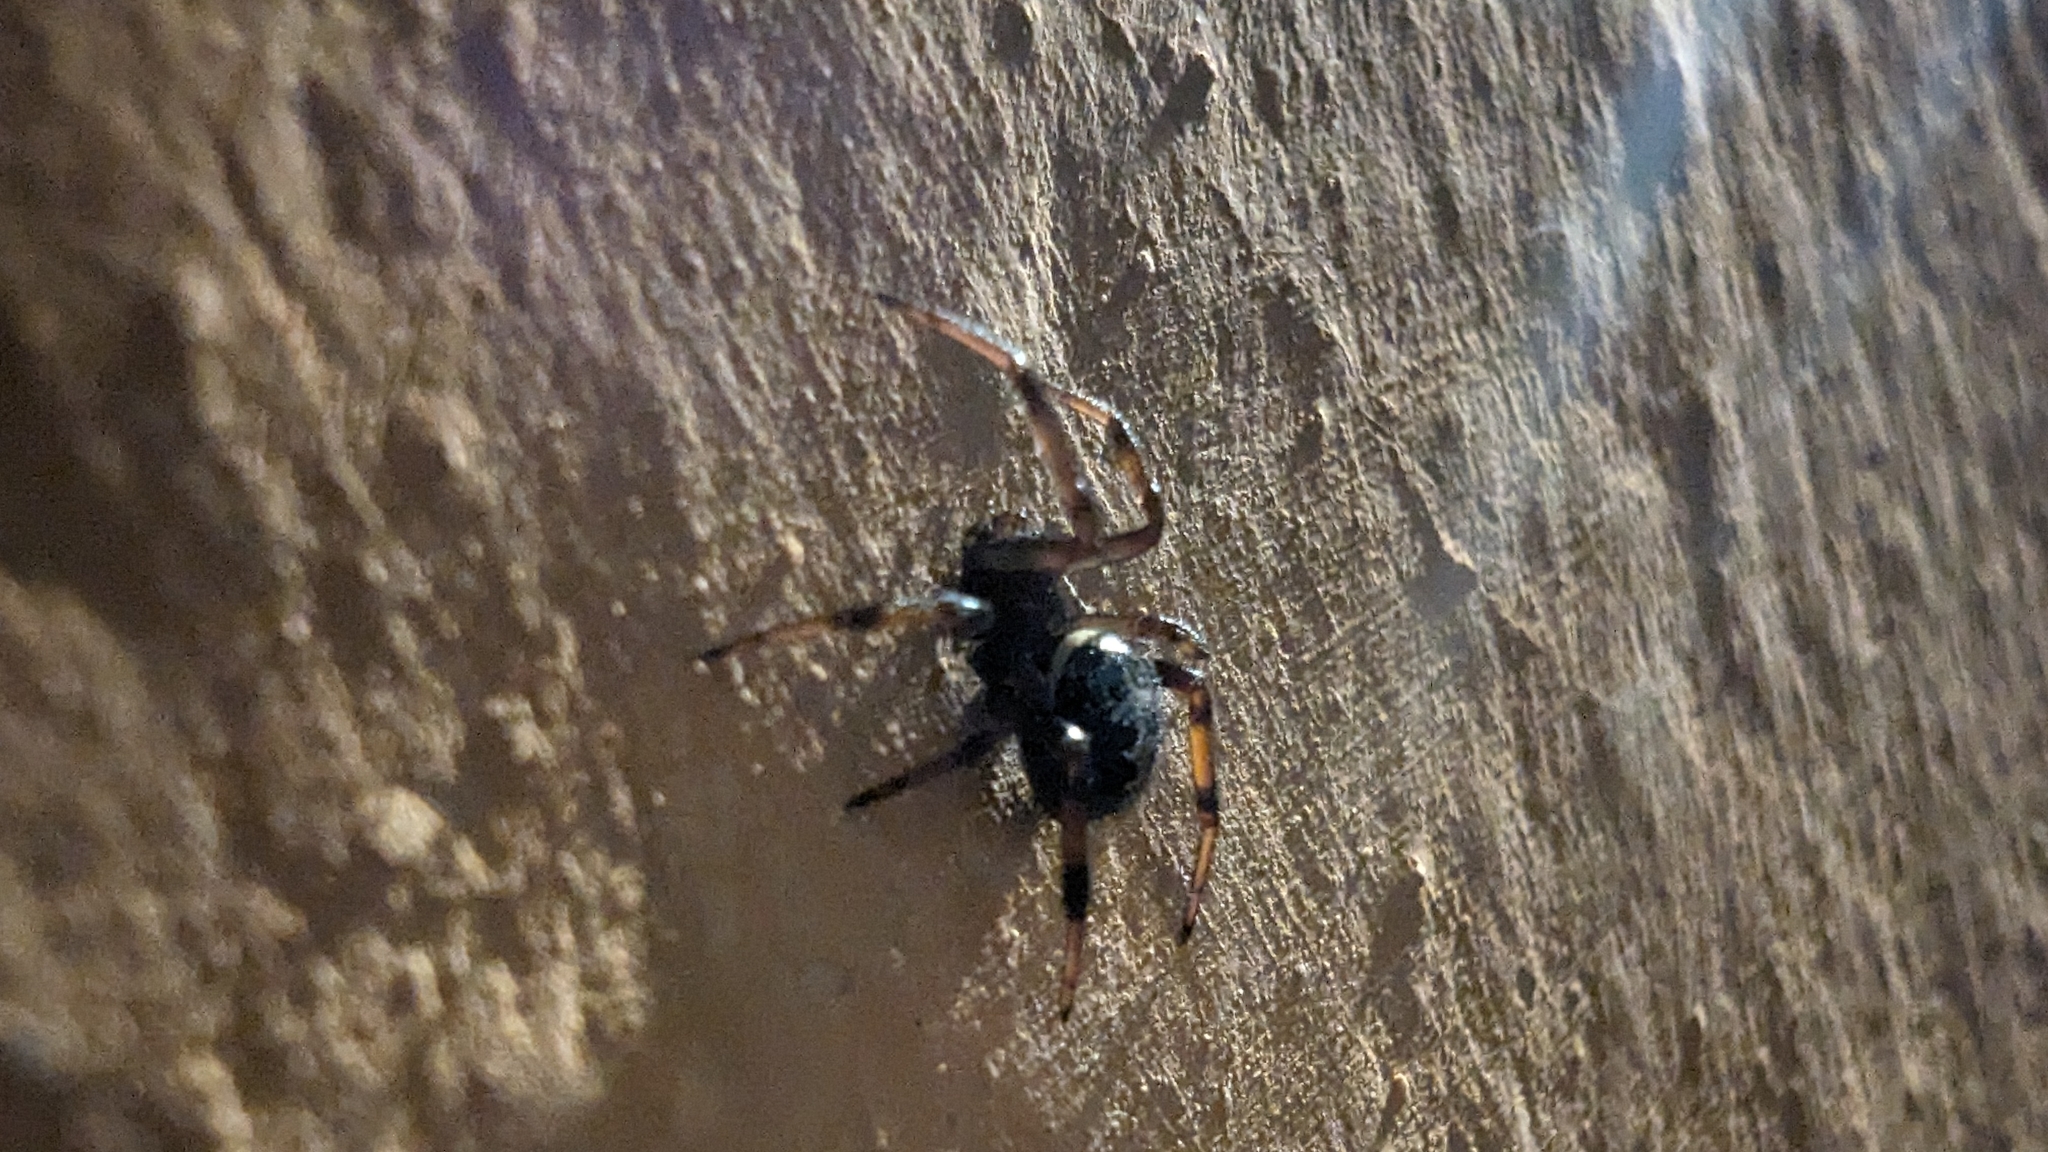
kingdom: Animalia
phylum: Arthropoda
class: Arachnida
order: Araneae
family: Theridiidae
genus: Steatoda
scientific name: Steatoda paykulliana
